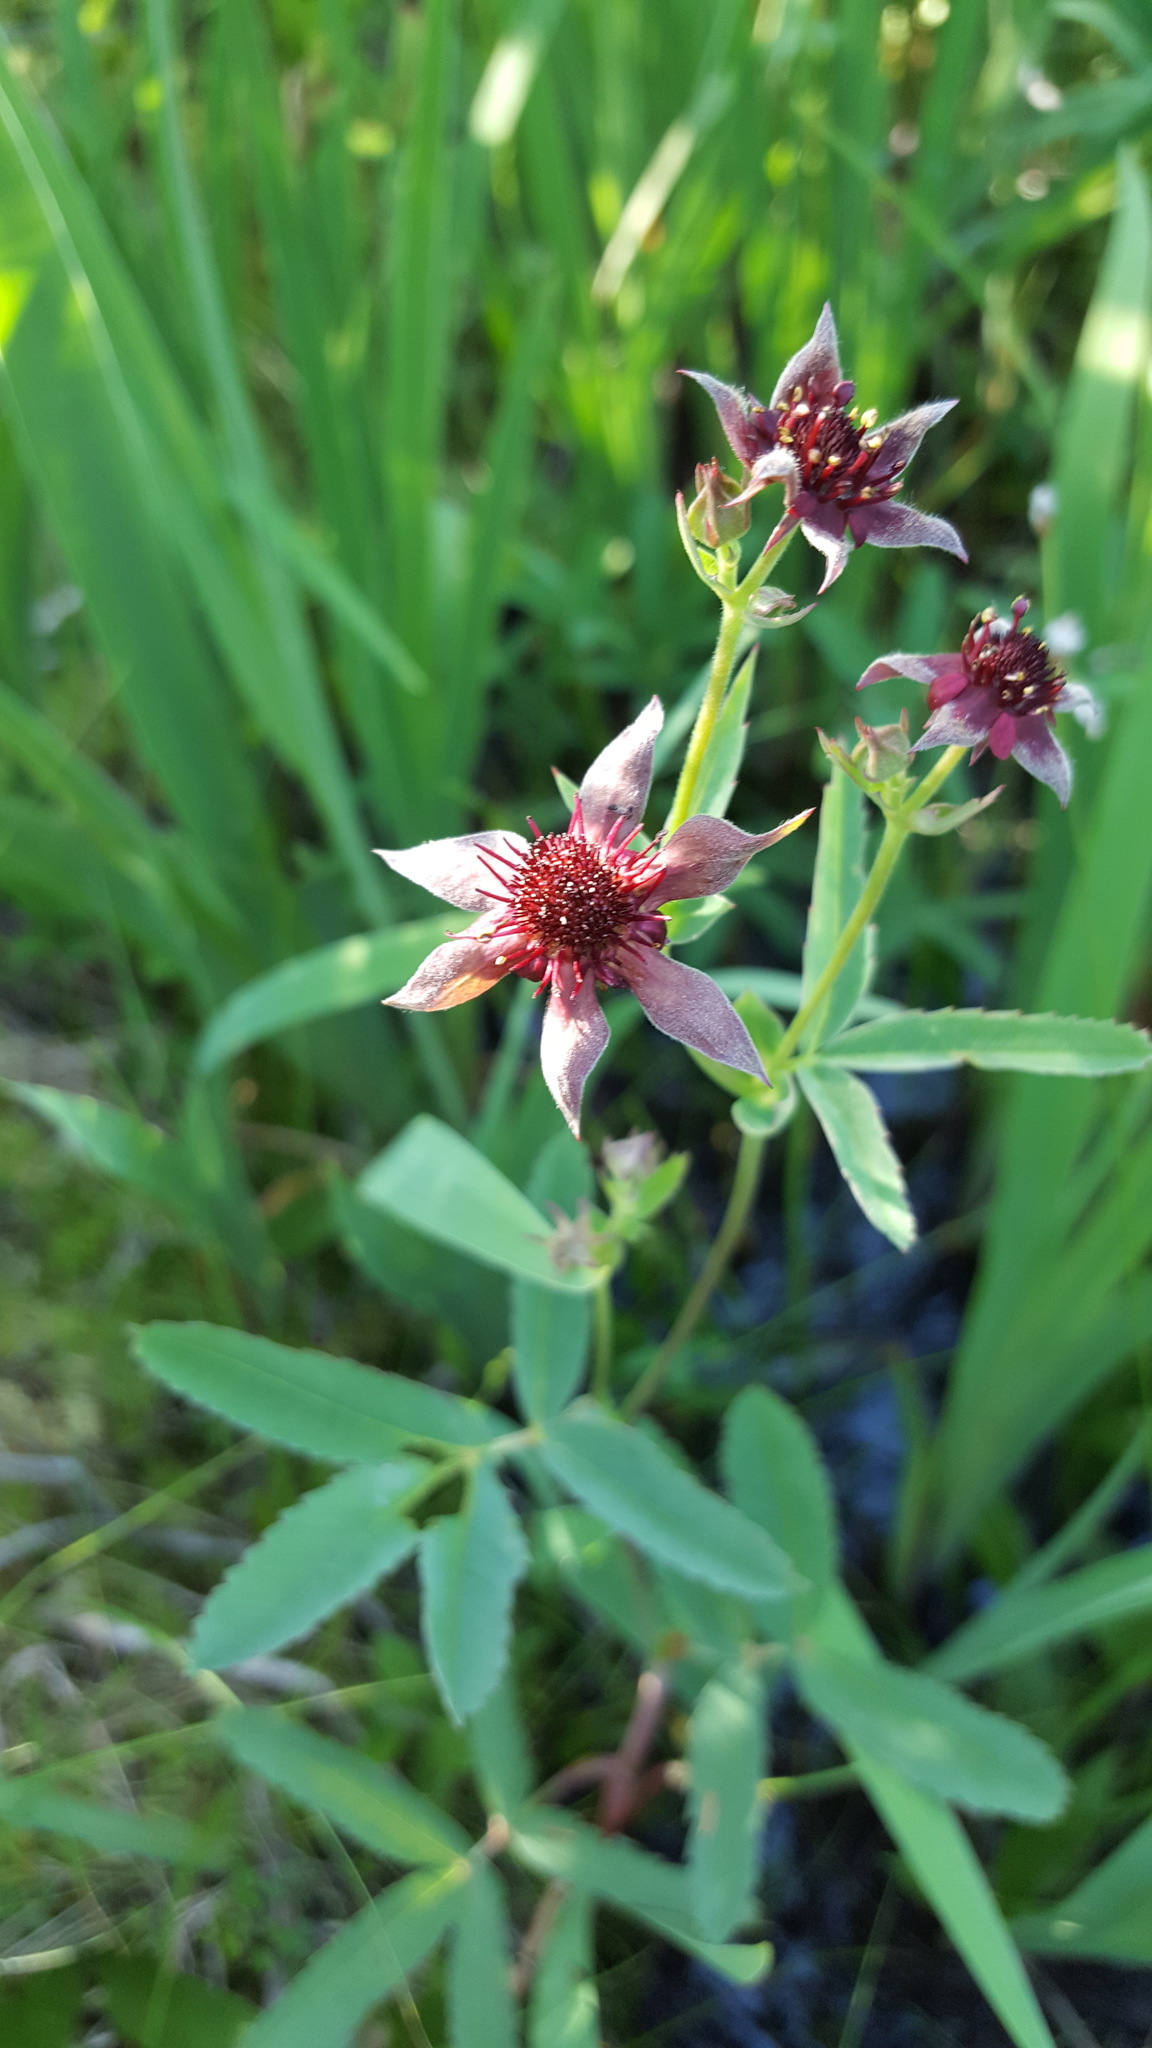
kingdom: Plantae
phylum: Tracheophyta
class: Magnoliopsida
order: Rosales
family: Rosaceae
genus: Comarum
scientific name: Comarum palustre
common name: Marsh cinquefoil
